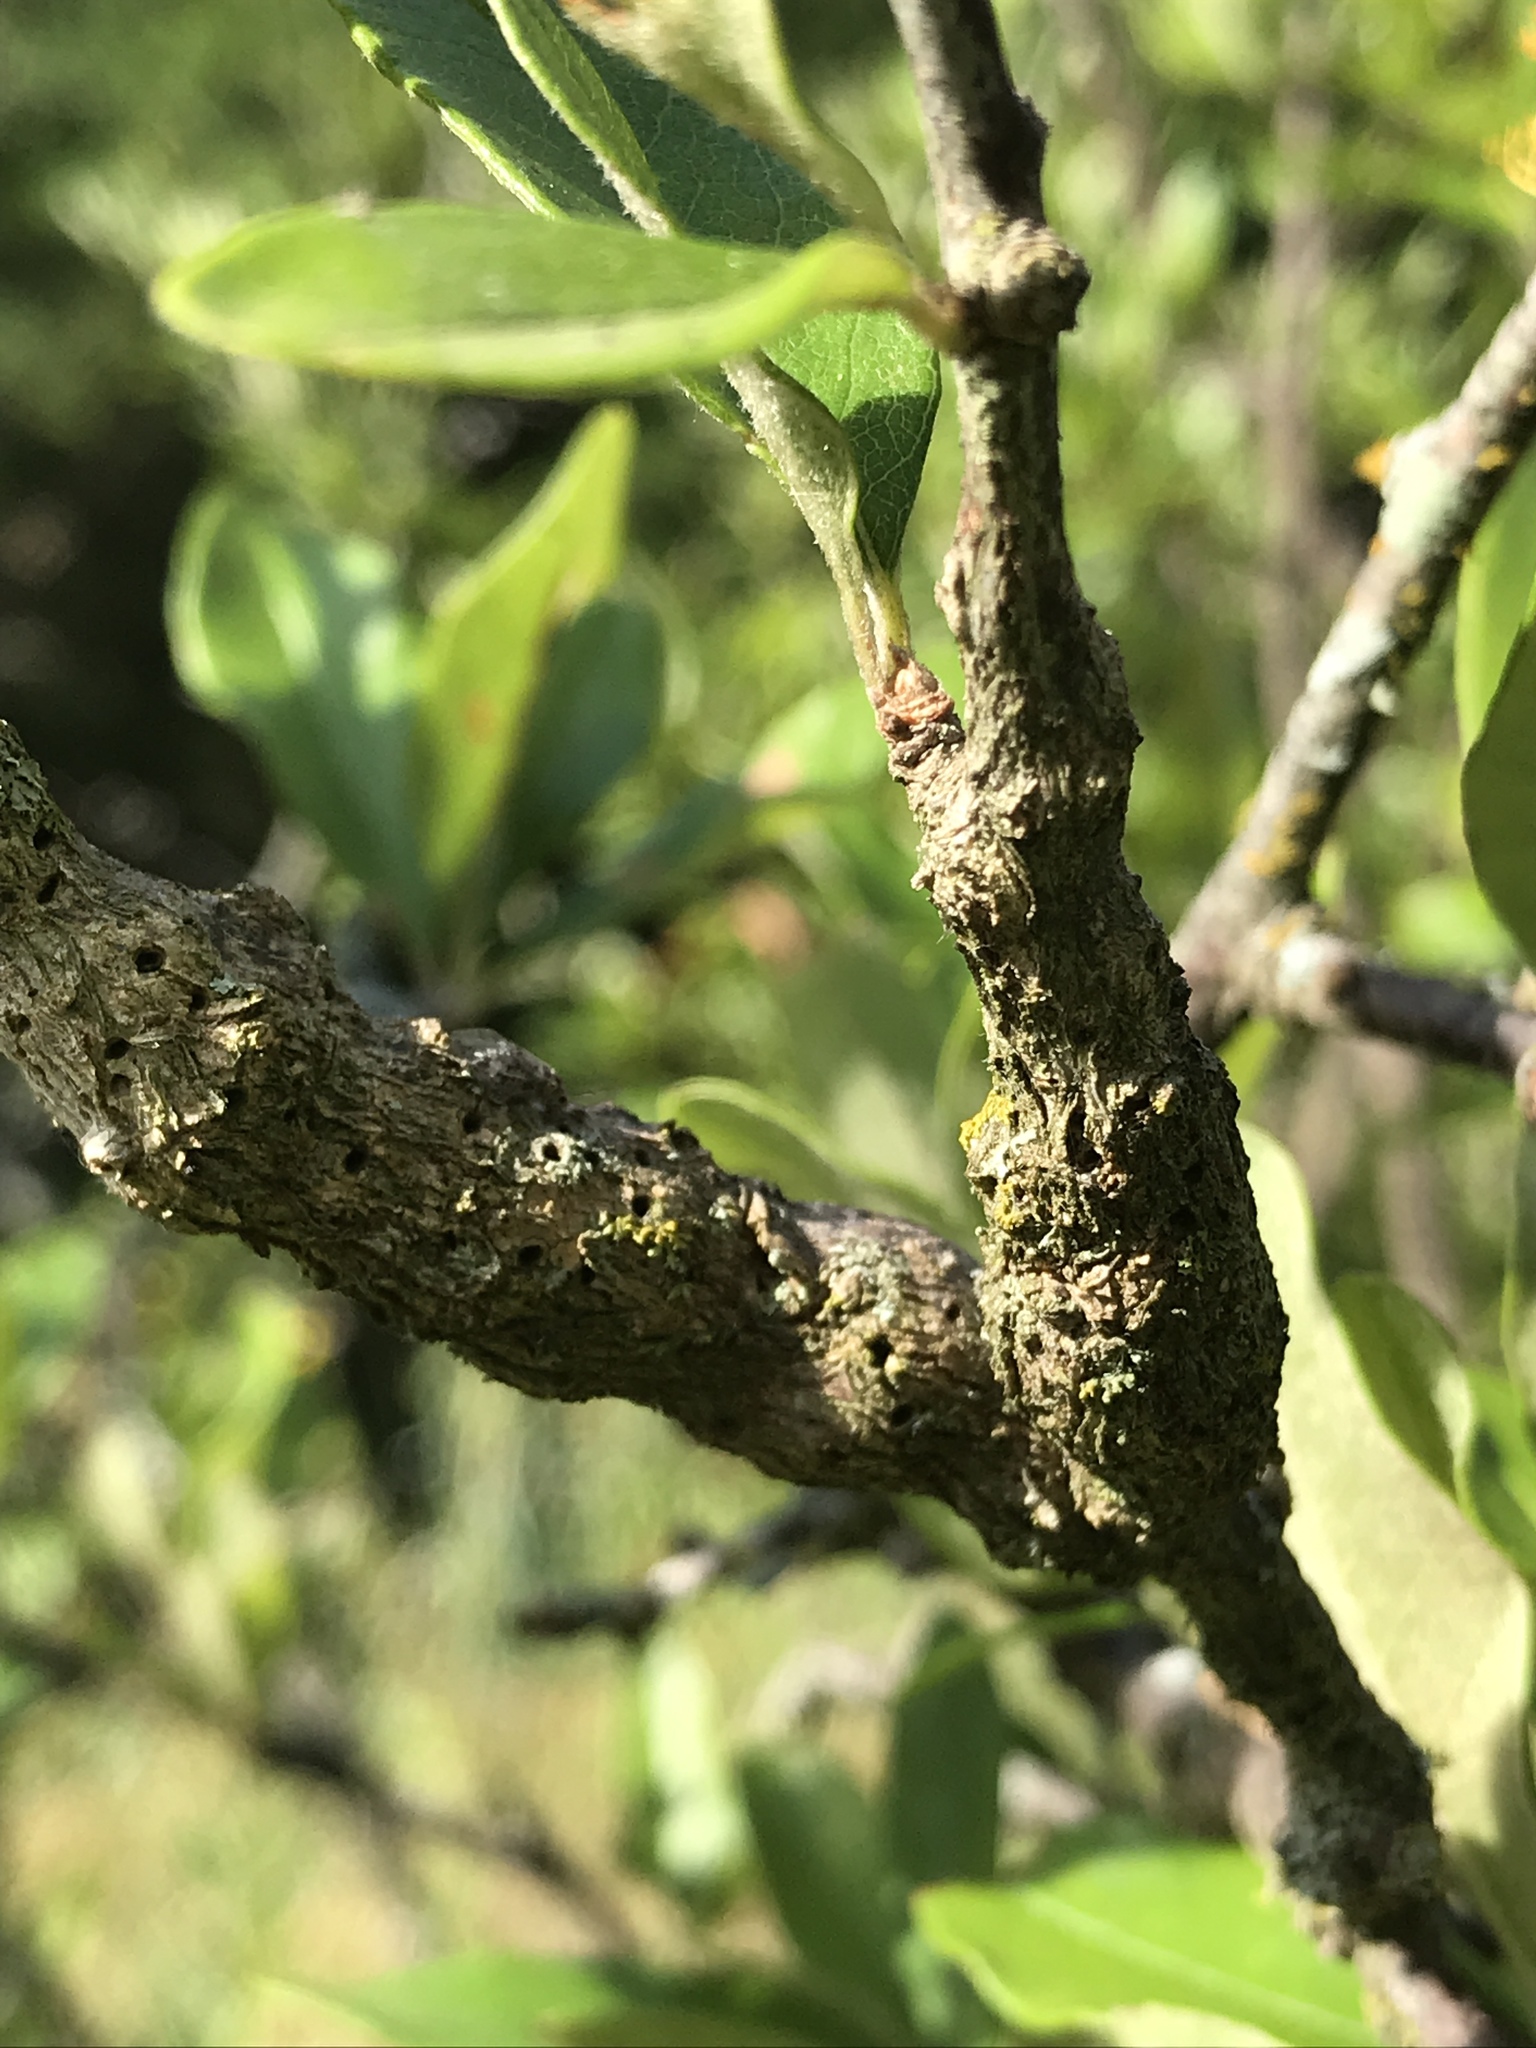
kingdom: Animalia
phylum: Arthropoda
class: Insecta
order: Diptera
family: Cecidomyiidae
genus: Bruggmanniella
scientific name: Bruggmanniella bumeliae
